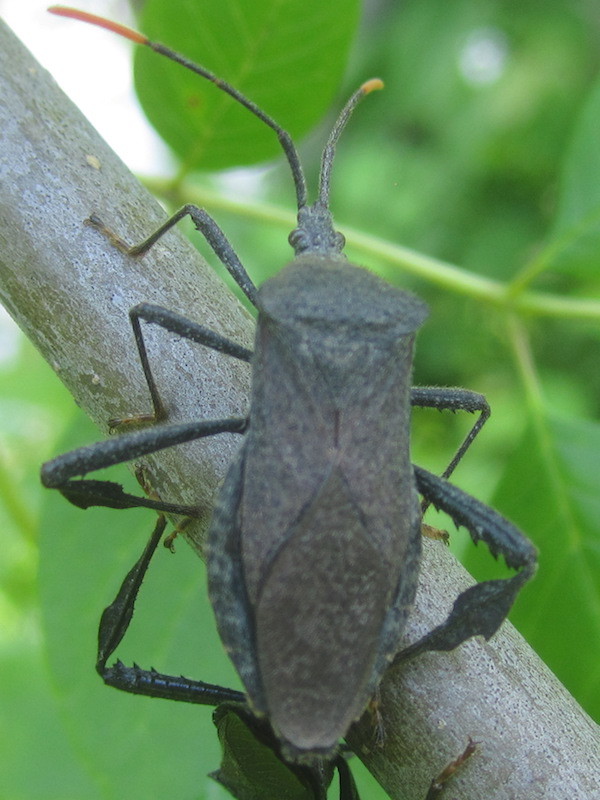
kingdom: Animalia
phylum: Arthropoda
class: Insecta
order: Hemiptera
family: Coreidae
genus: Acanthocephala
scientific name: Acanthocephala terminalis
